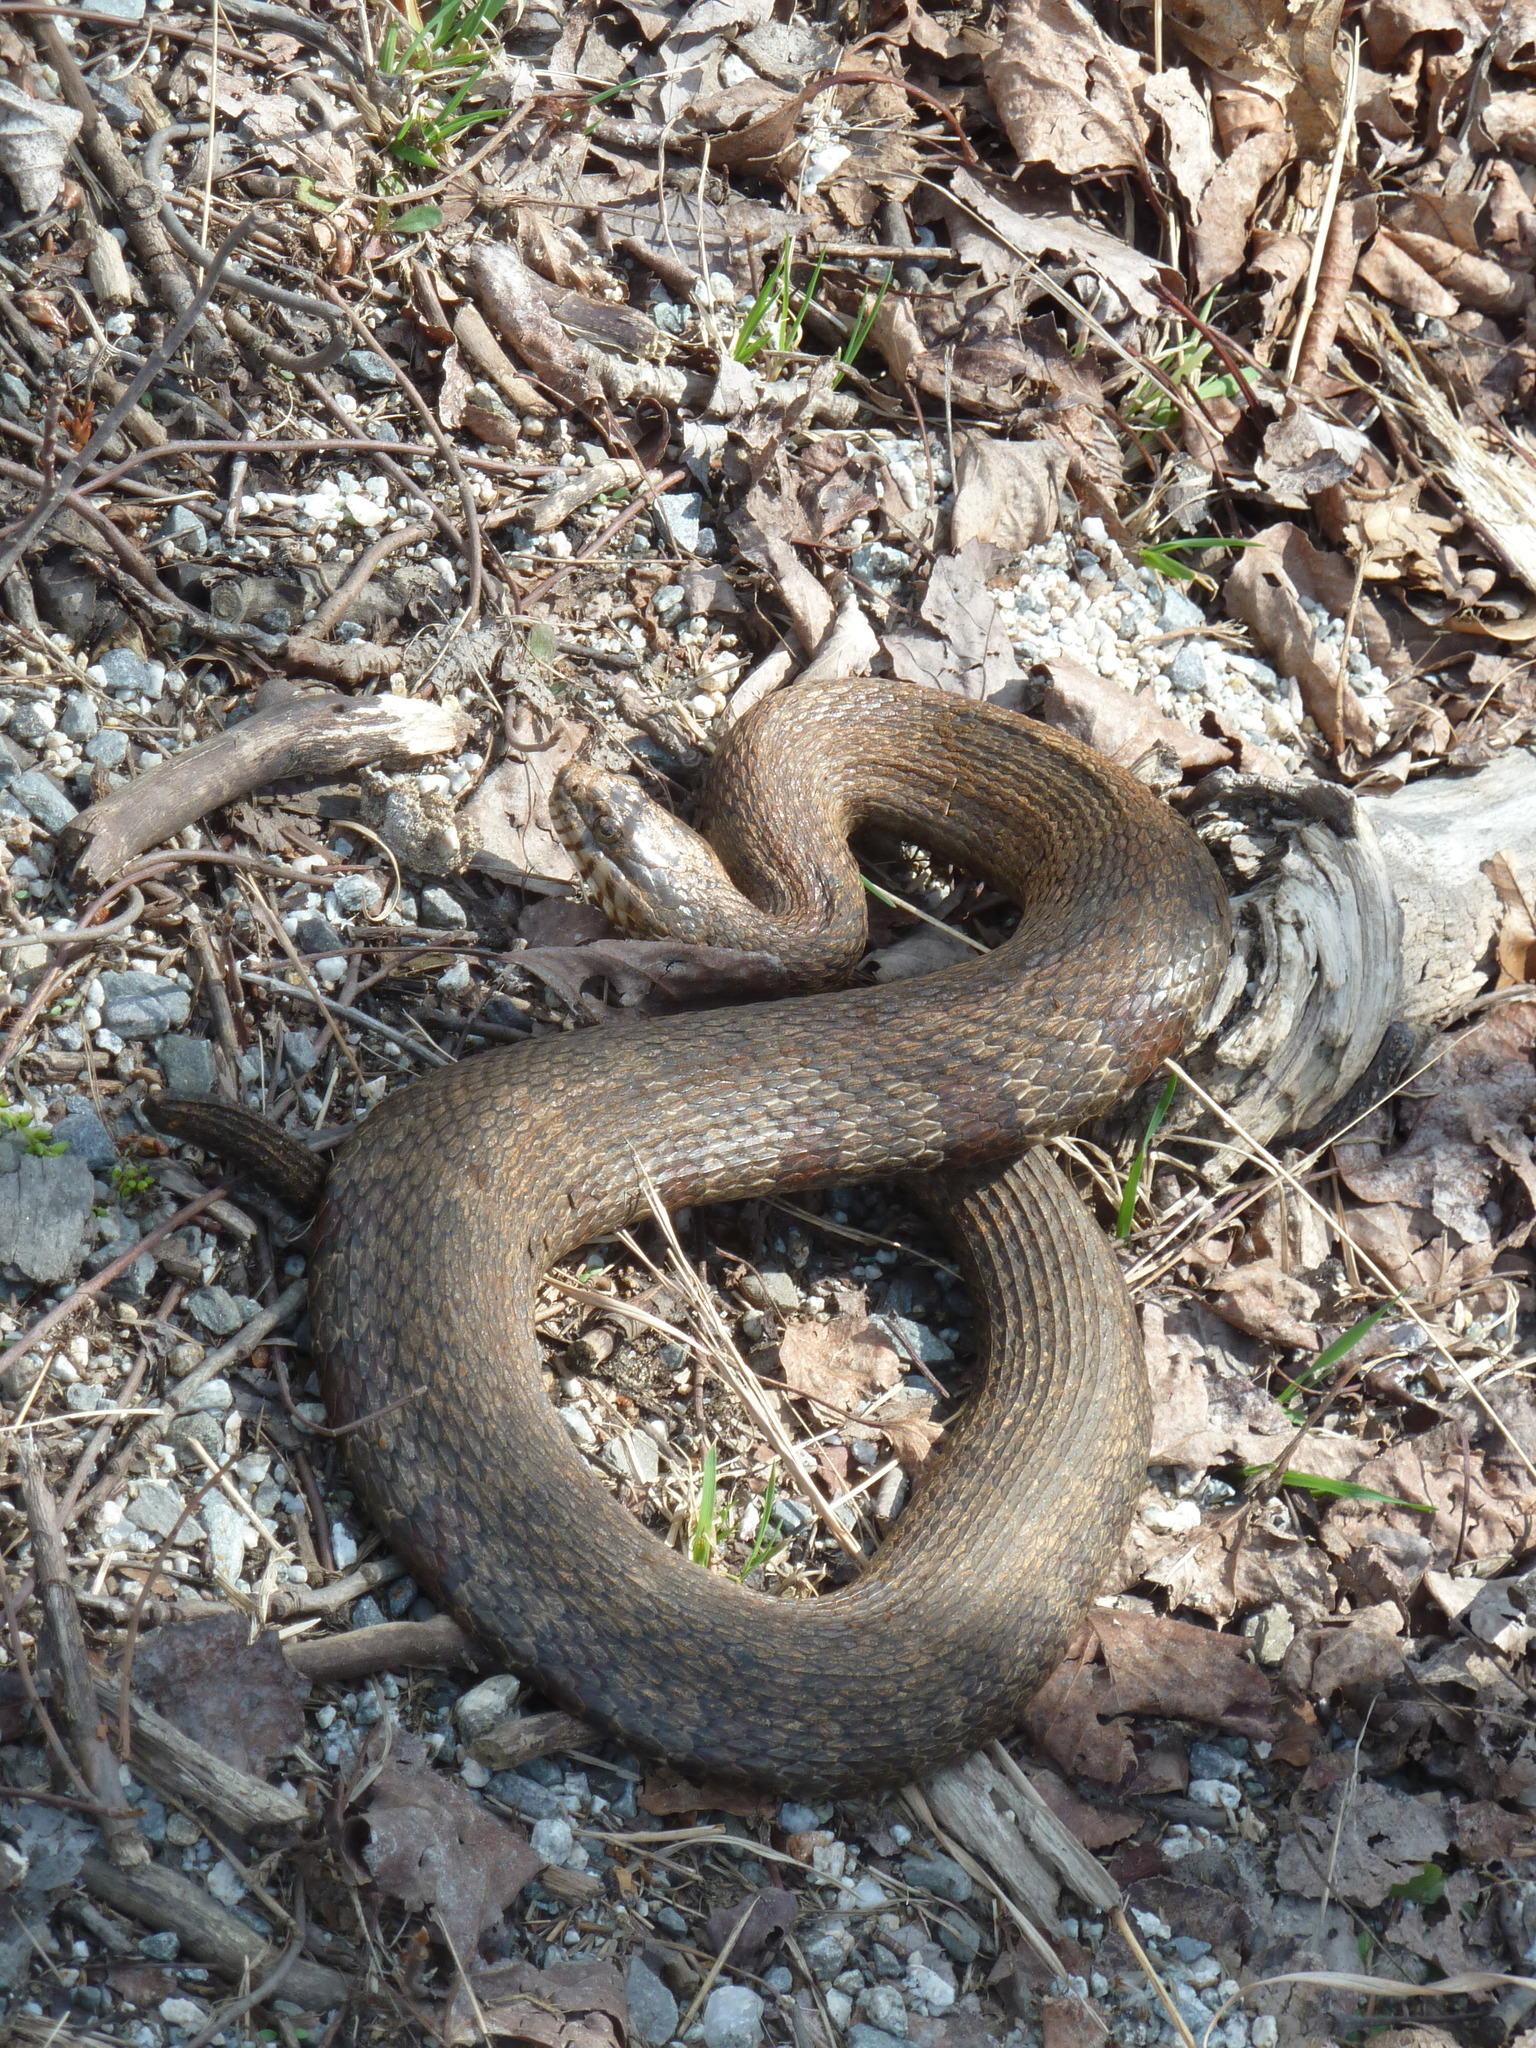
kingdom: Animalia
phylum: Chordata
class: Squamata
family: Colubridae
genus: Nerodia
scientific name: Nerodia sipedon
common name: Northern water snake
